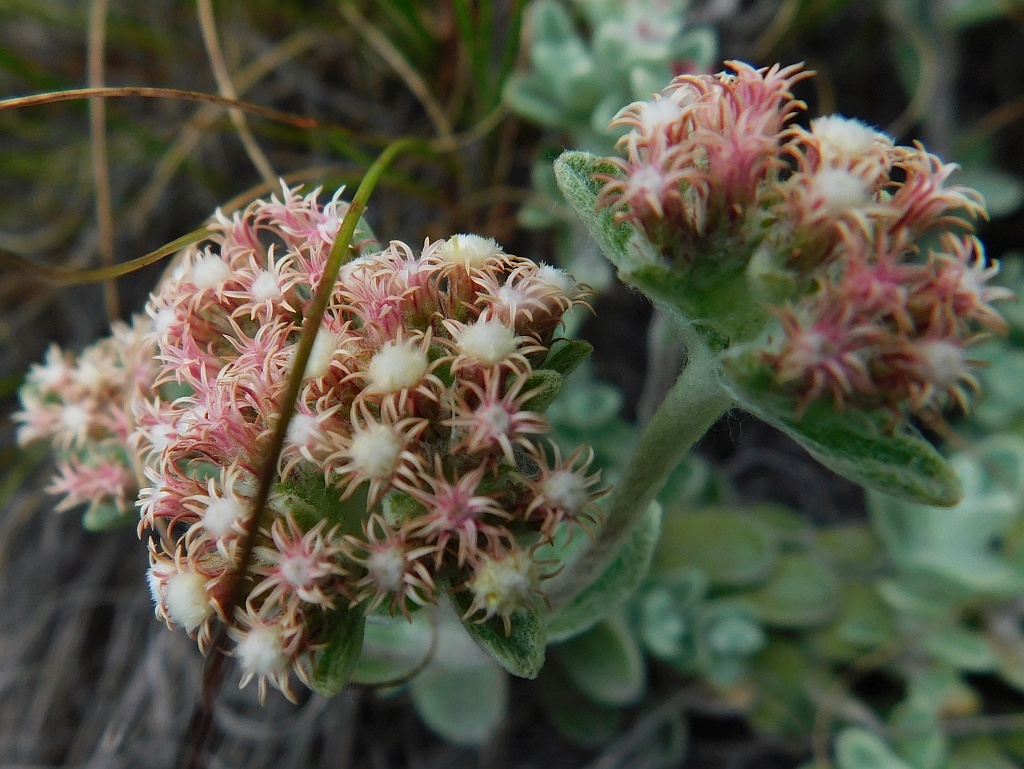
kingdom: Plantae
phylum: Tracheophyta
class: Magnoliopsida
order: Asterales
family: Asteraceae
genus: Helichrysum
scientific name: Helichrysum spiralepis
